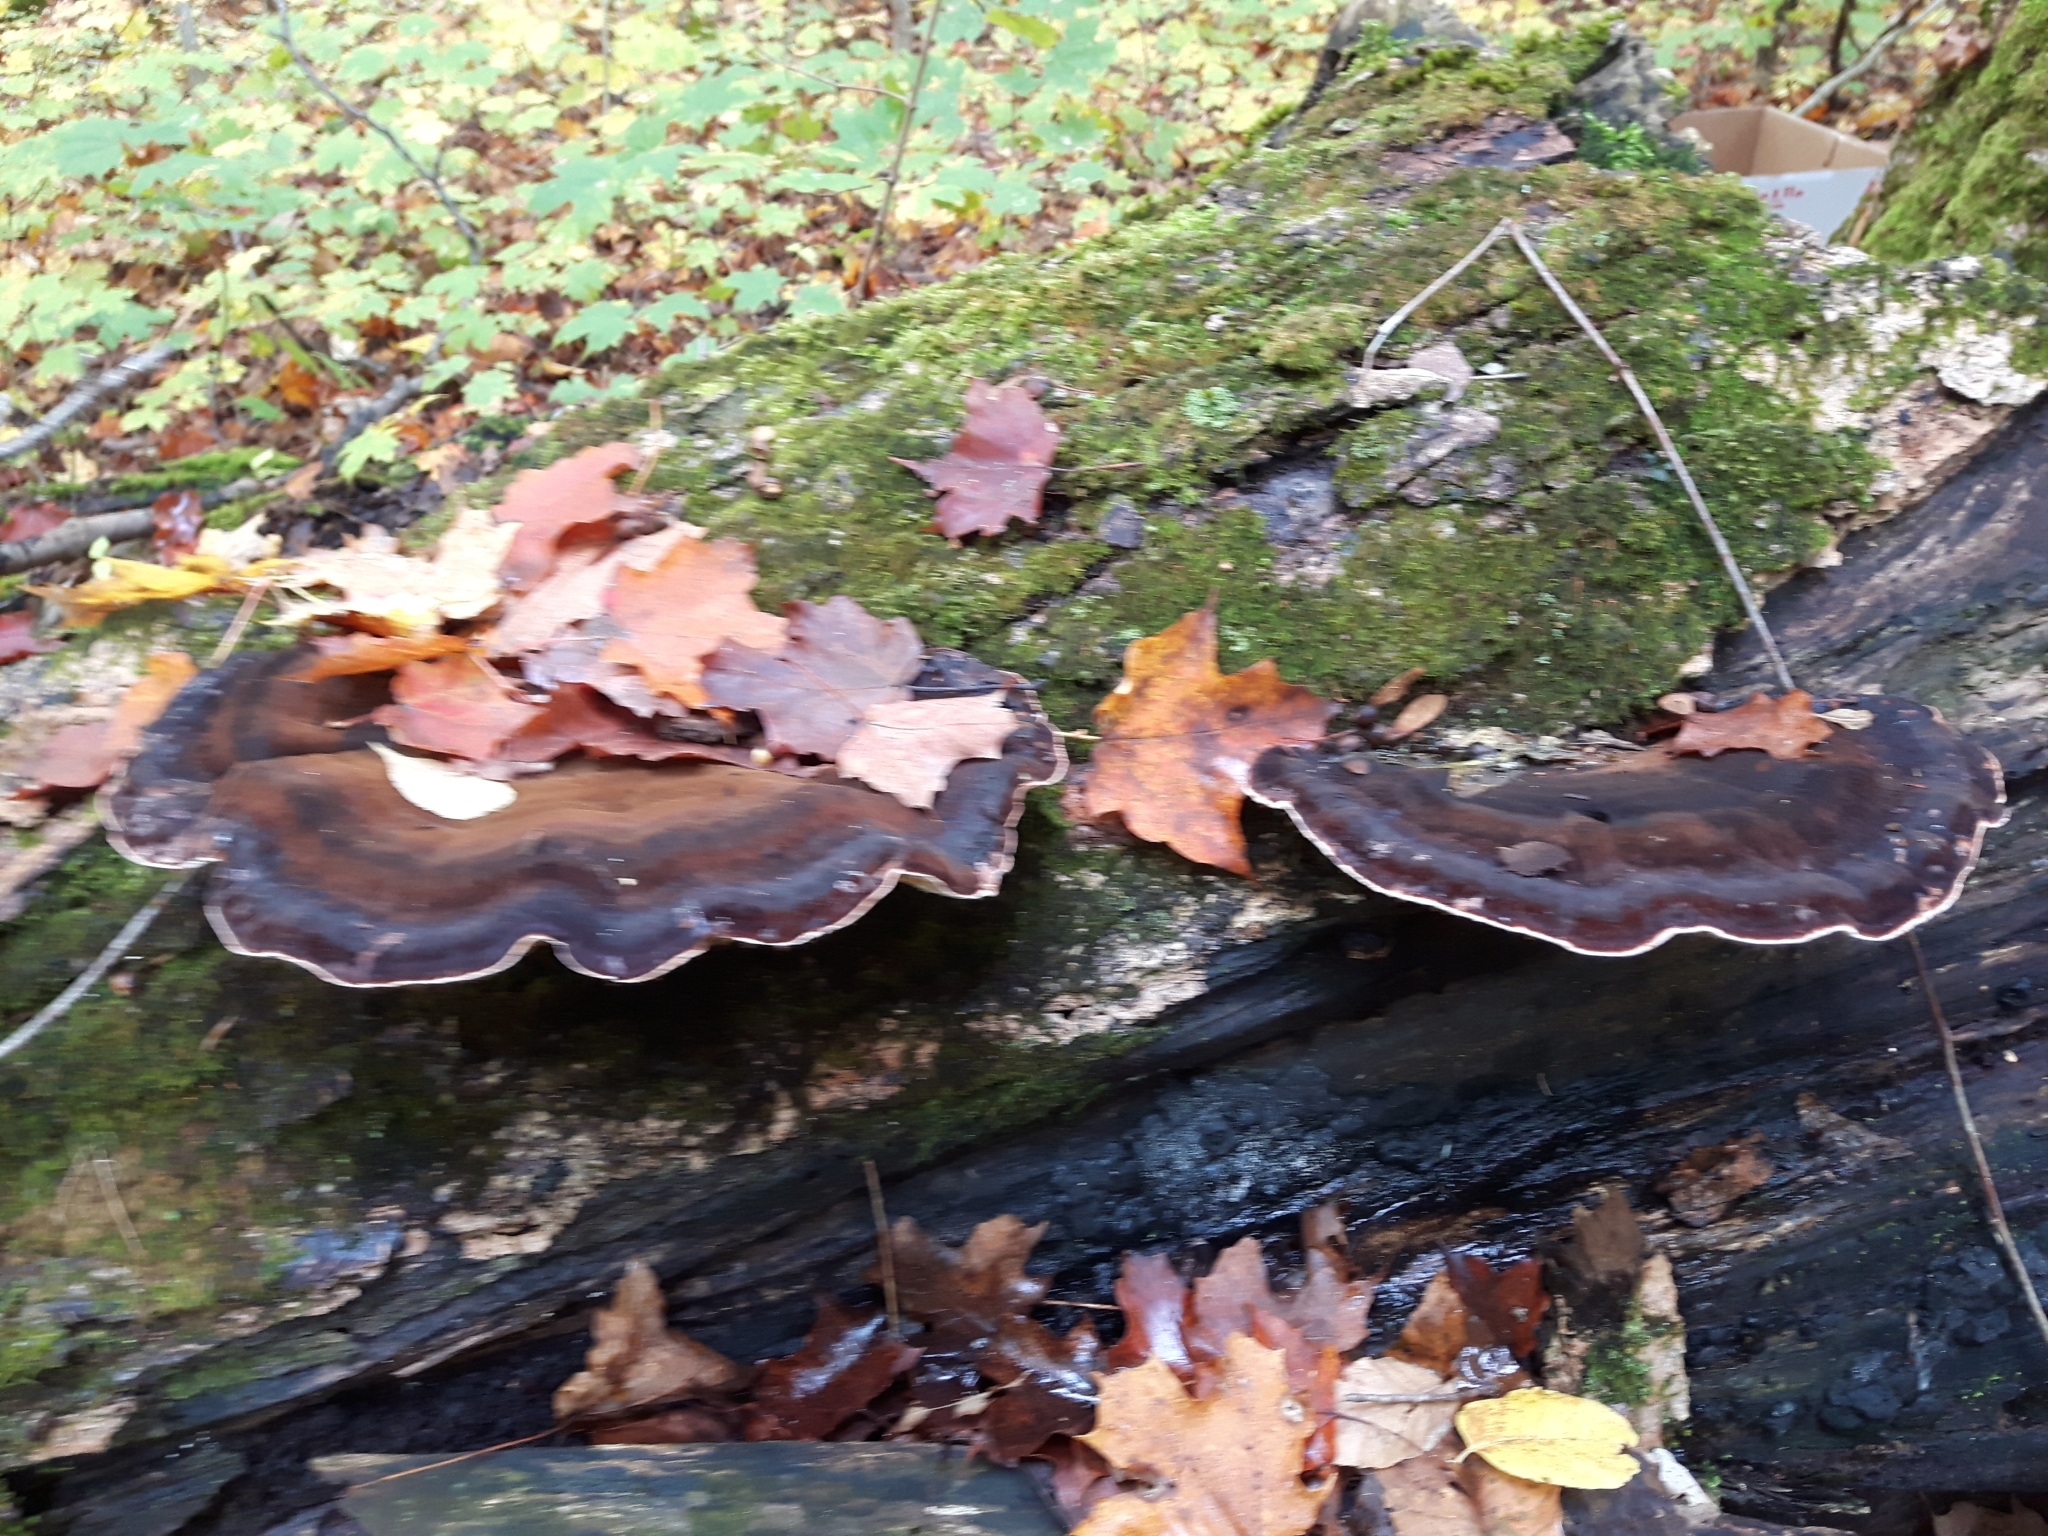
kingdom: Fungi
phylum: Basidiomycota
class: Agaricomycetes
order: Polyporales
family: Ischnodermataceae
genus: Ischnoderma
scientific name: Ischnoderma resinosum
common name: Resinous polypore
